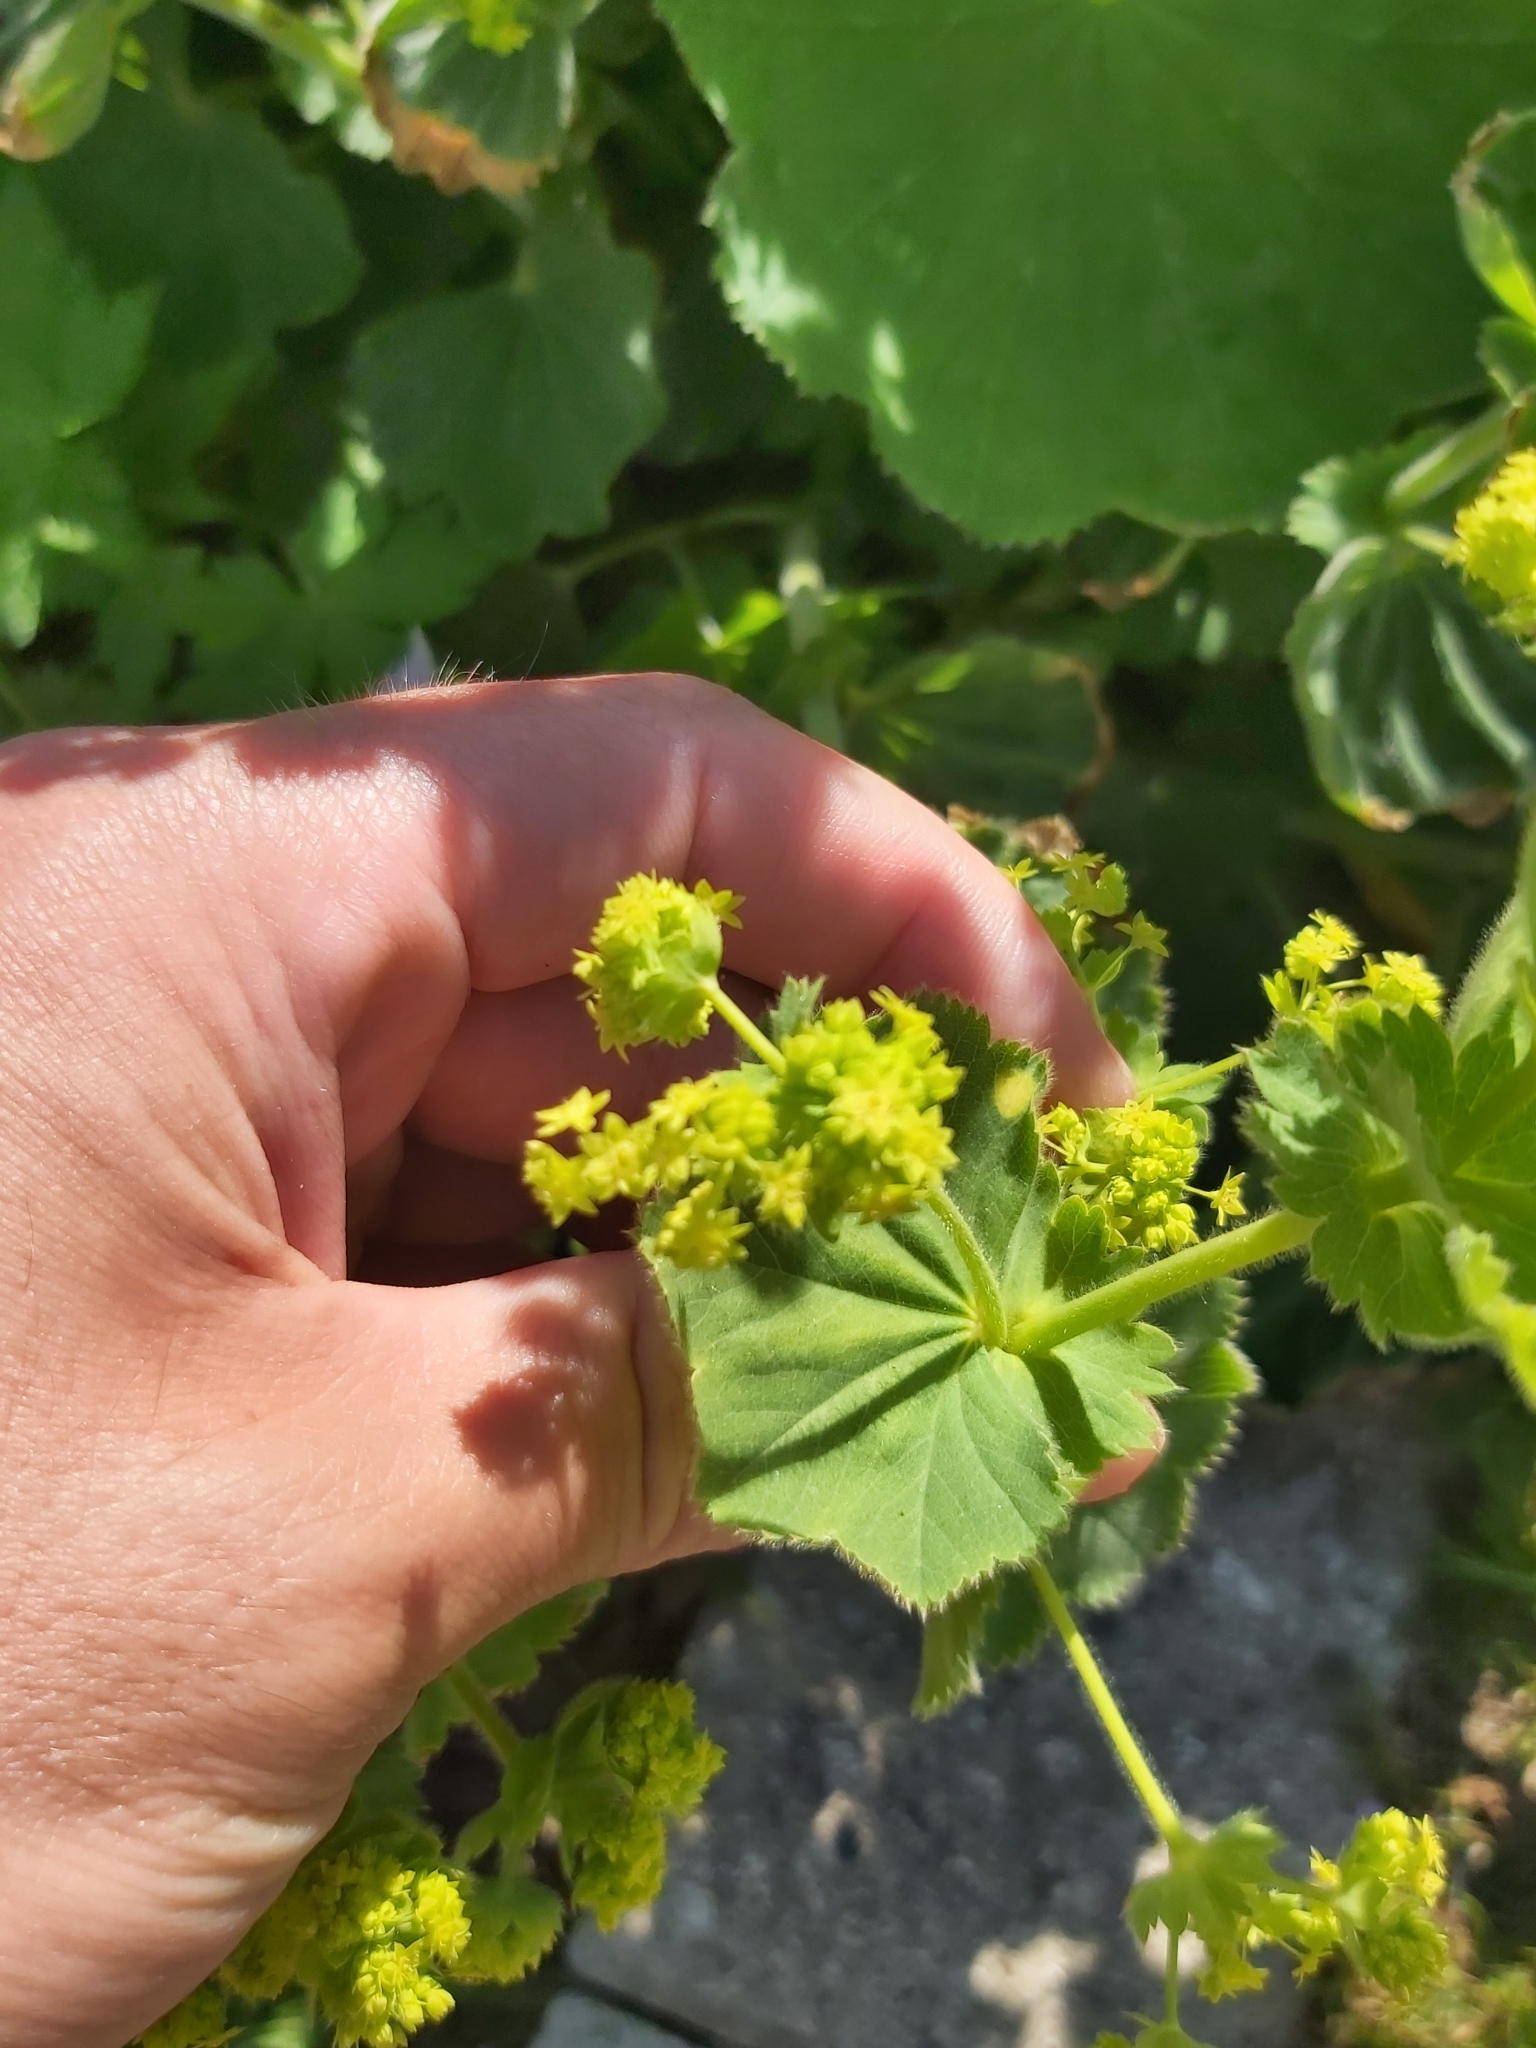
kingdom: Plantae
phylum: Tracheophyta
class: Magnoliopsida
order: Rosales
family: Rosaceae
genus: Alchemilla
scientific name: Alchemilla mollis
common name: Lady's-mantle
